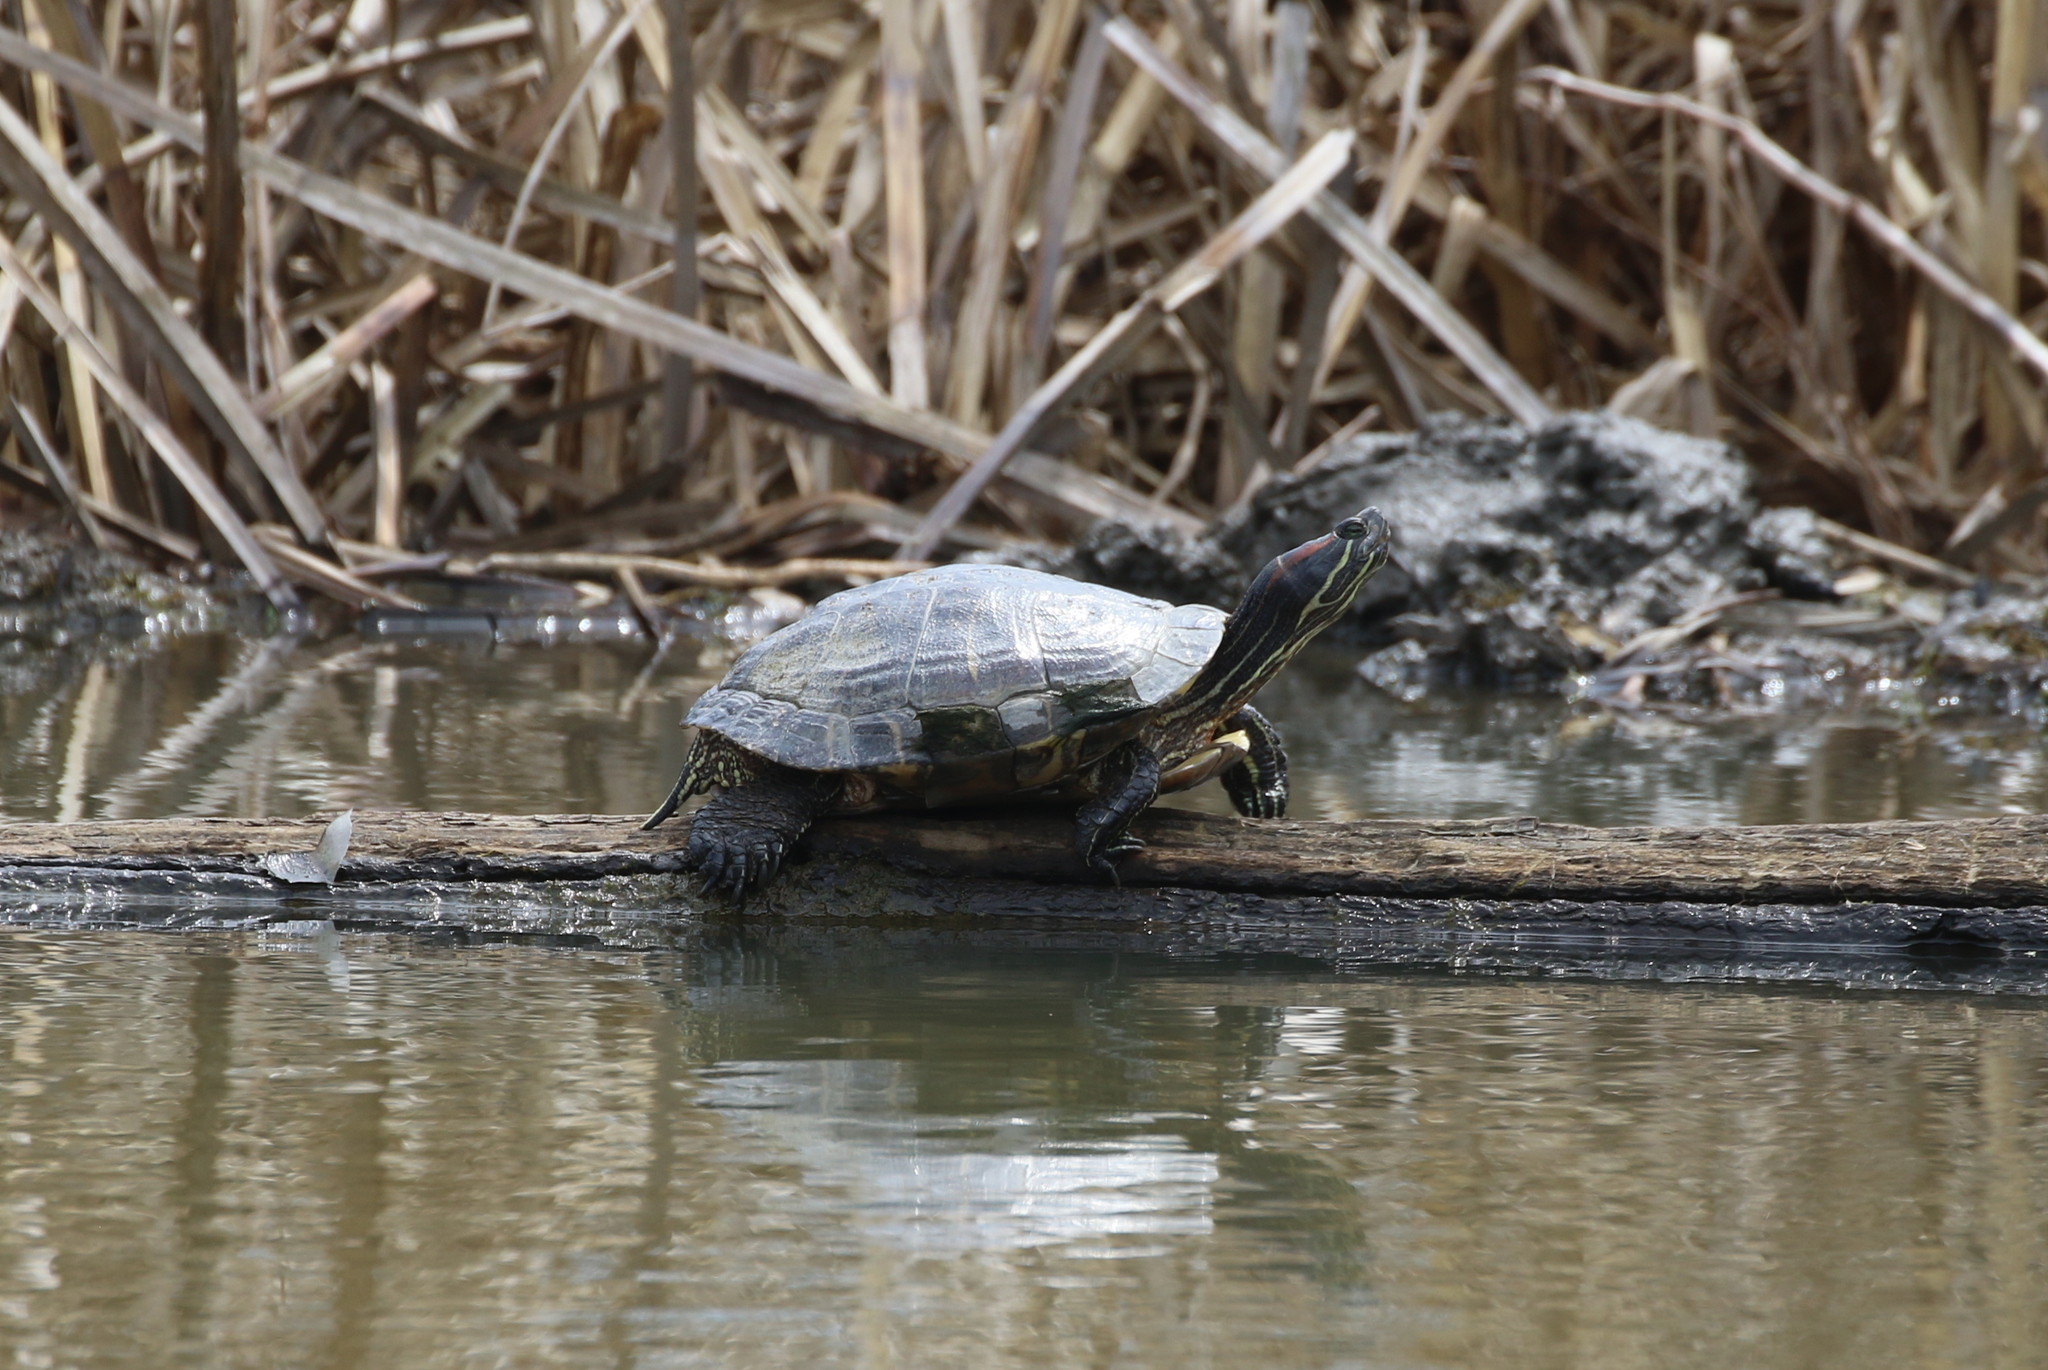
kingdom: Animalia
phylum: Chordata
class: Testudines
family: Emydidae
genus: Trachemys
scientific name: Trachemys scripta
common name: Slider
